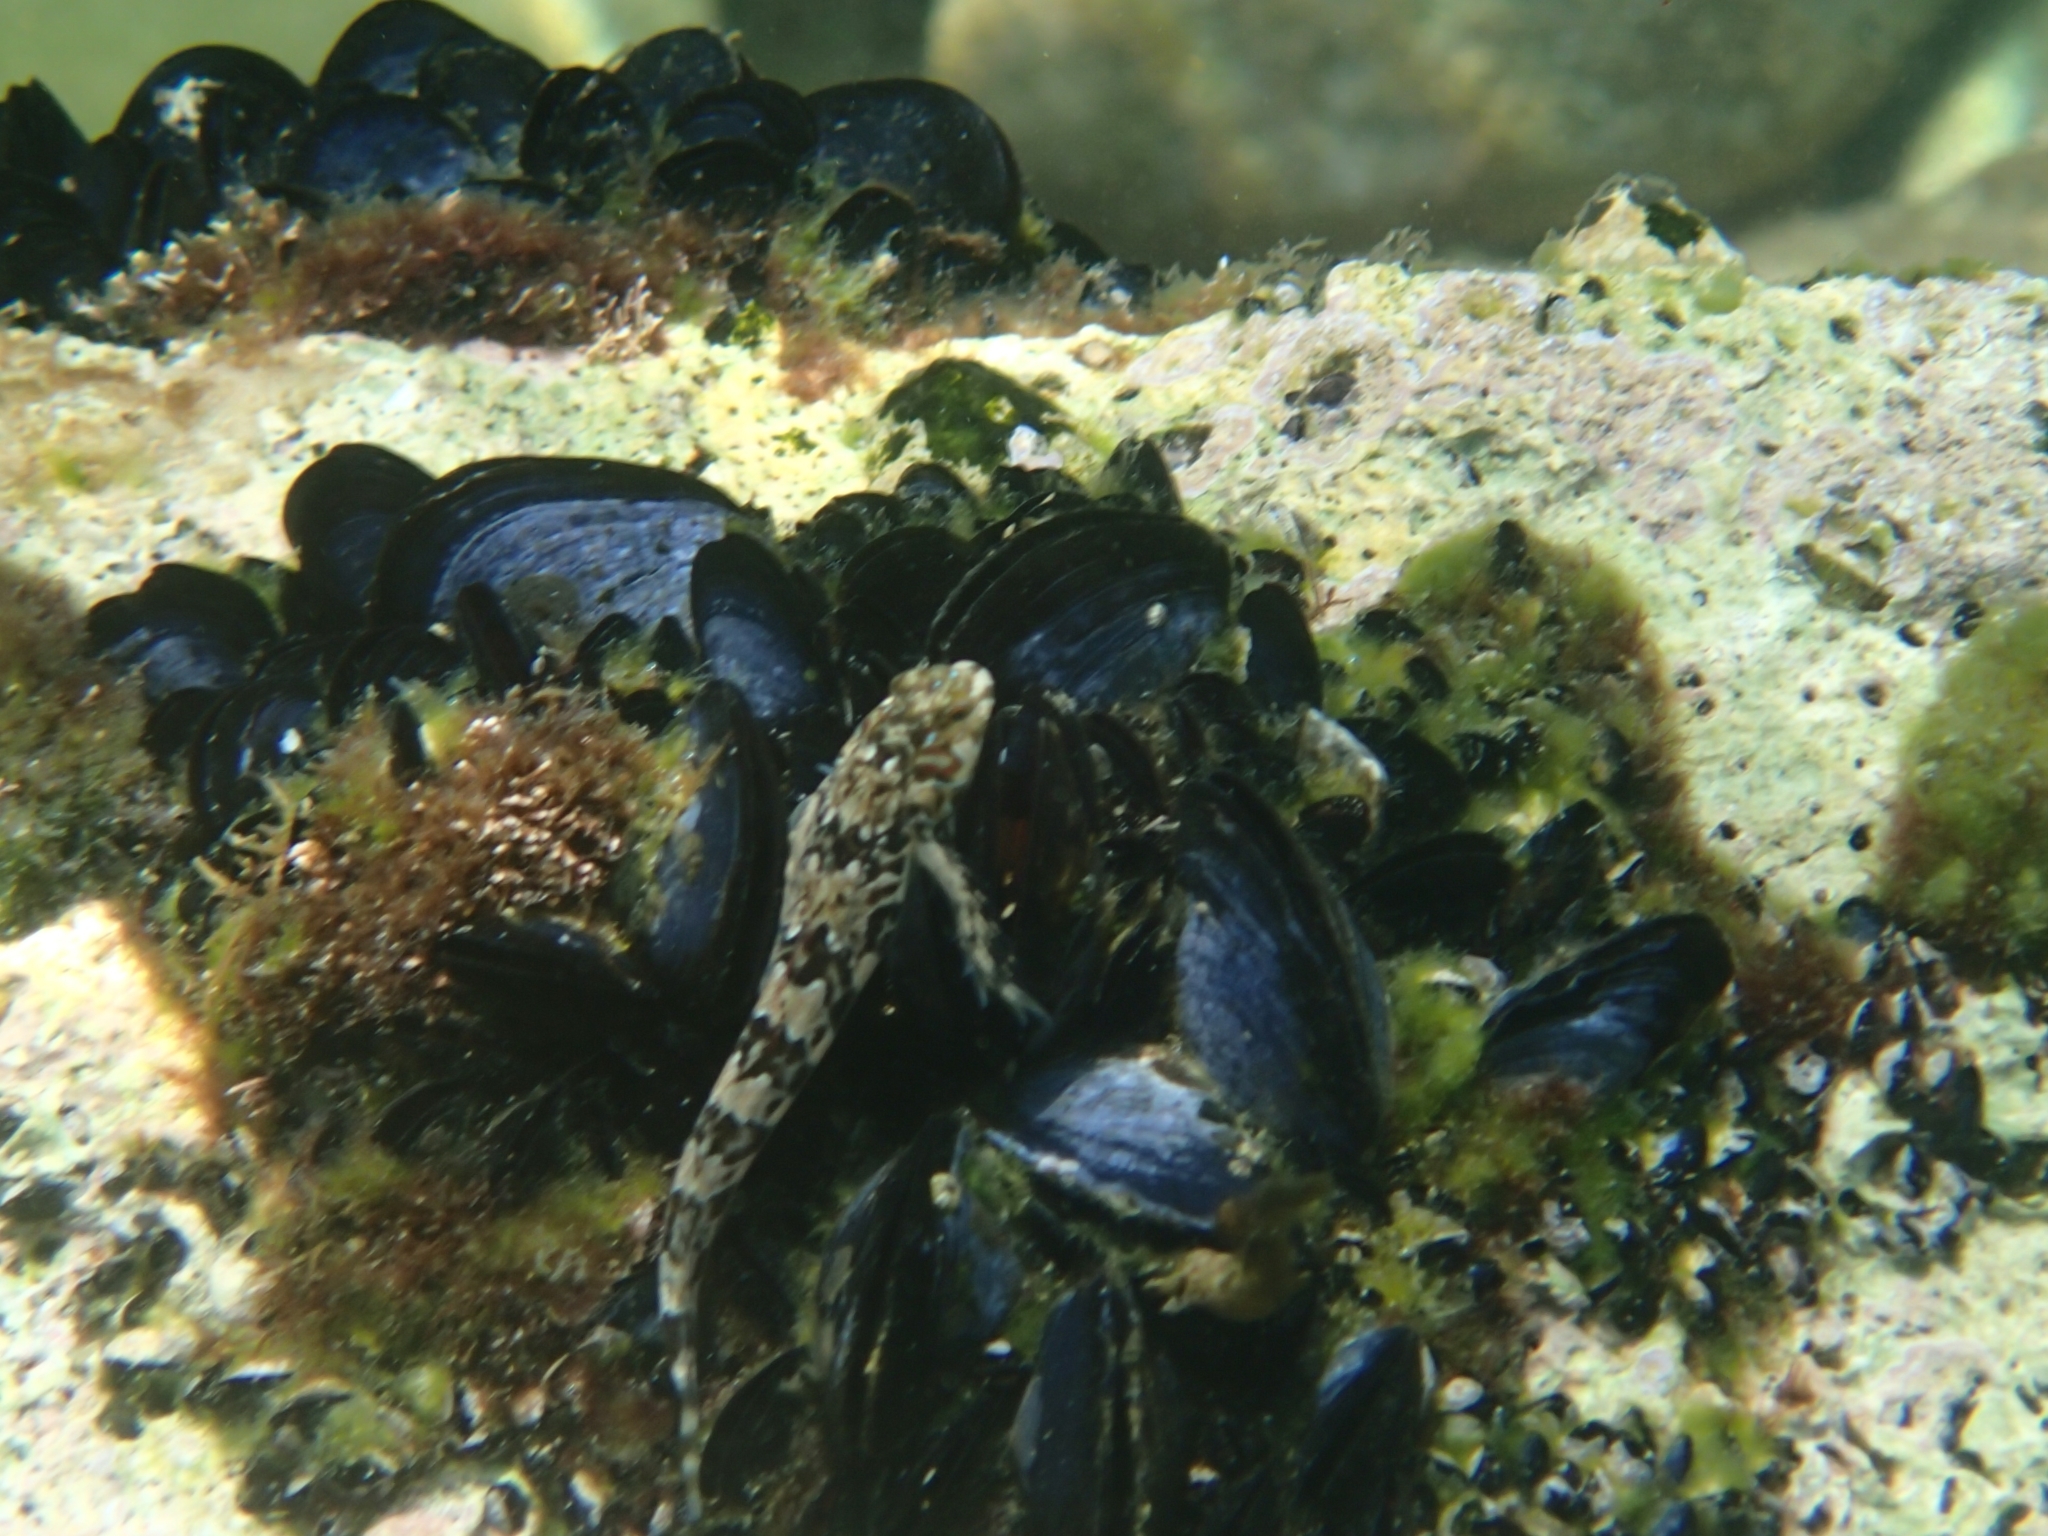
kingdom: Animalia
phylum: Chordata
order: Perciformes
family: Blenniidae
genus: Aidablennius
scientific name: Aidablennius sphynx
